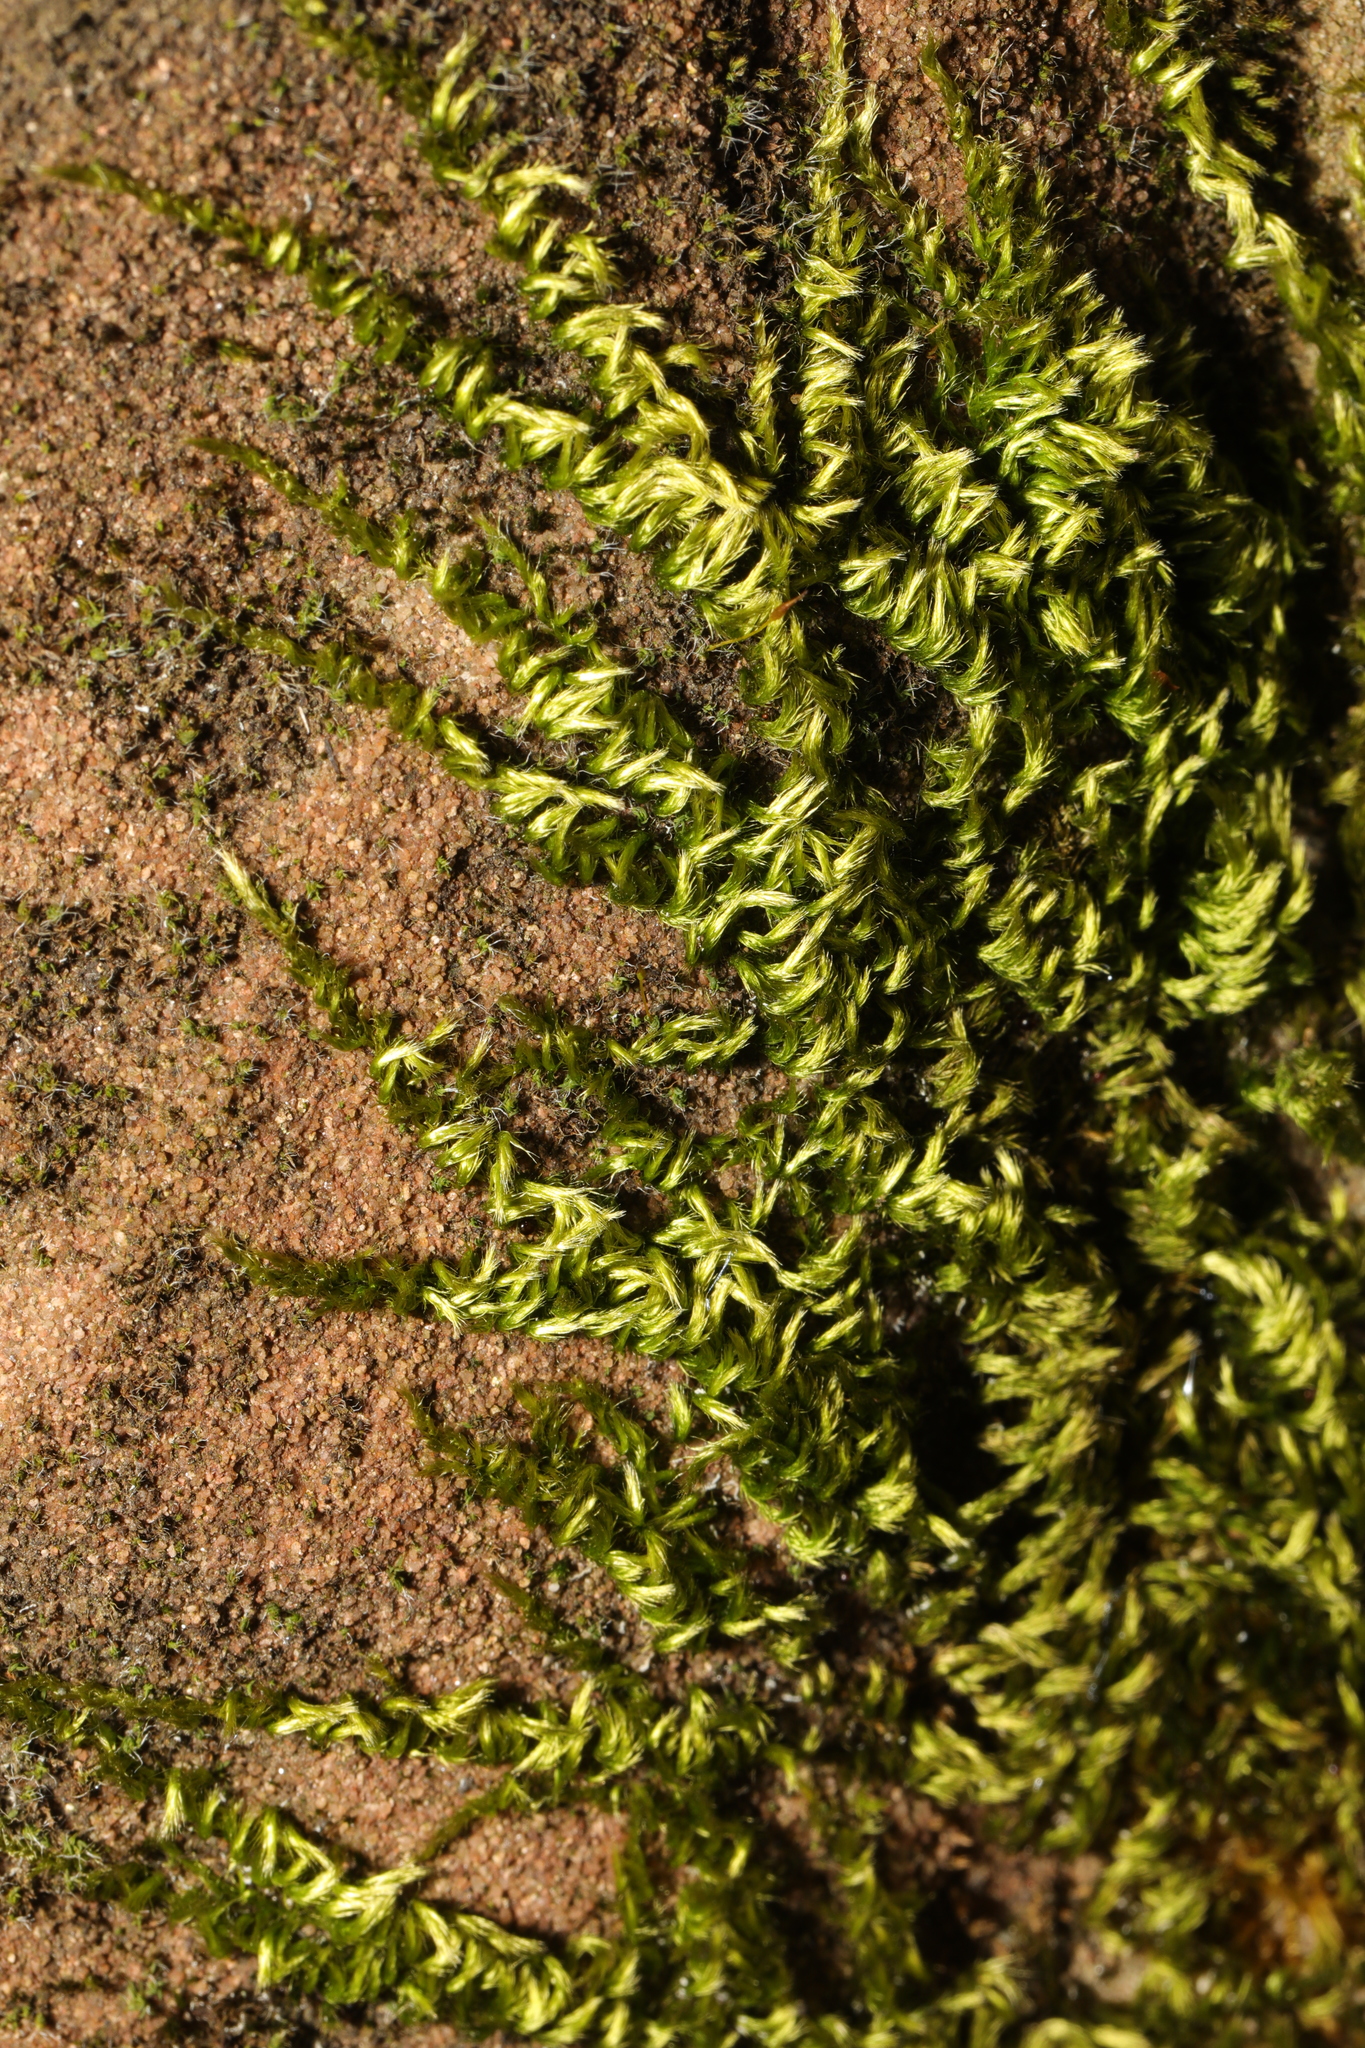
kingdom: Plantae
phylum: Bryophyta
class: Bryopsida
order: Hypnales
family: Brachytheciaceae
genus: Homalothecium
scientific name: Homalothecium sericeum
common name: Silky wall feather-moss
